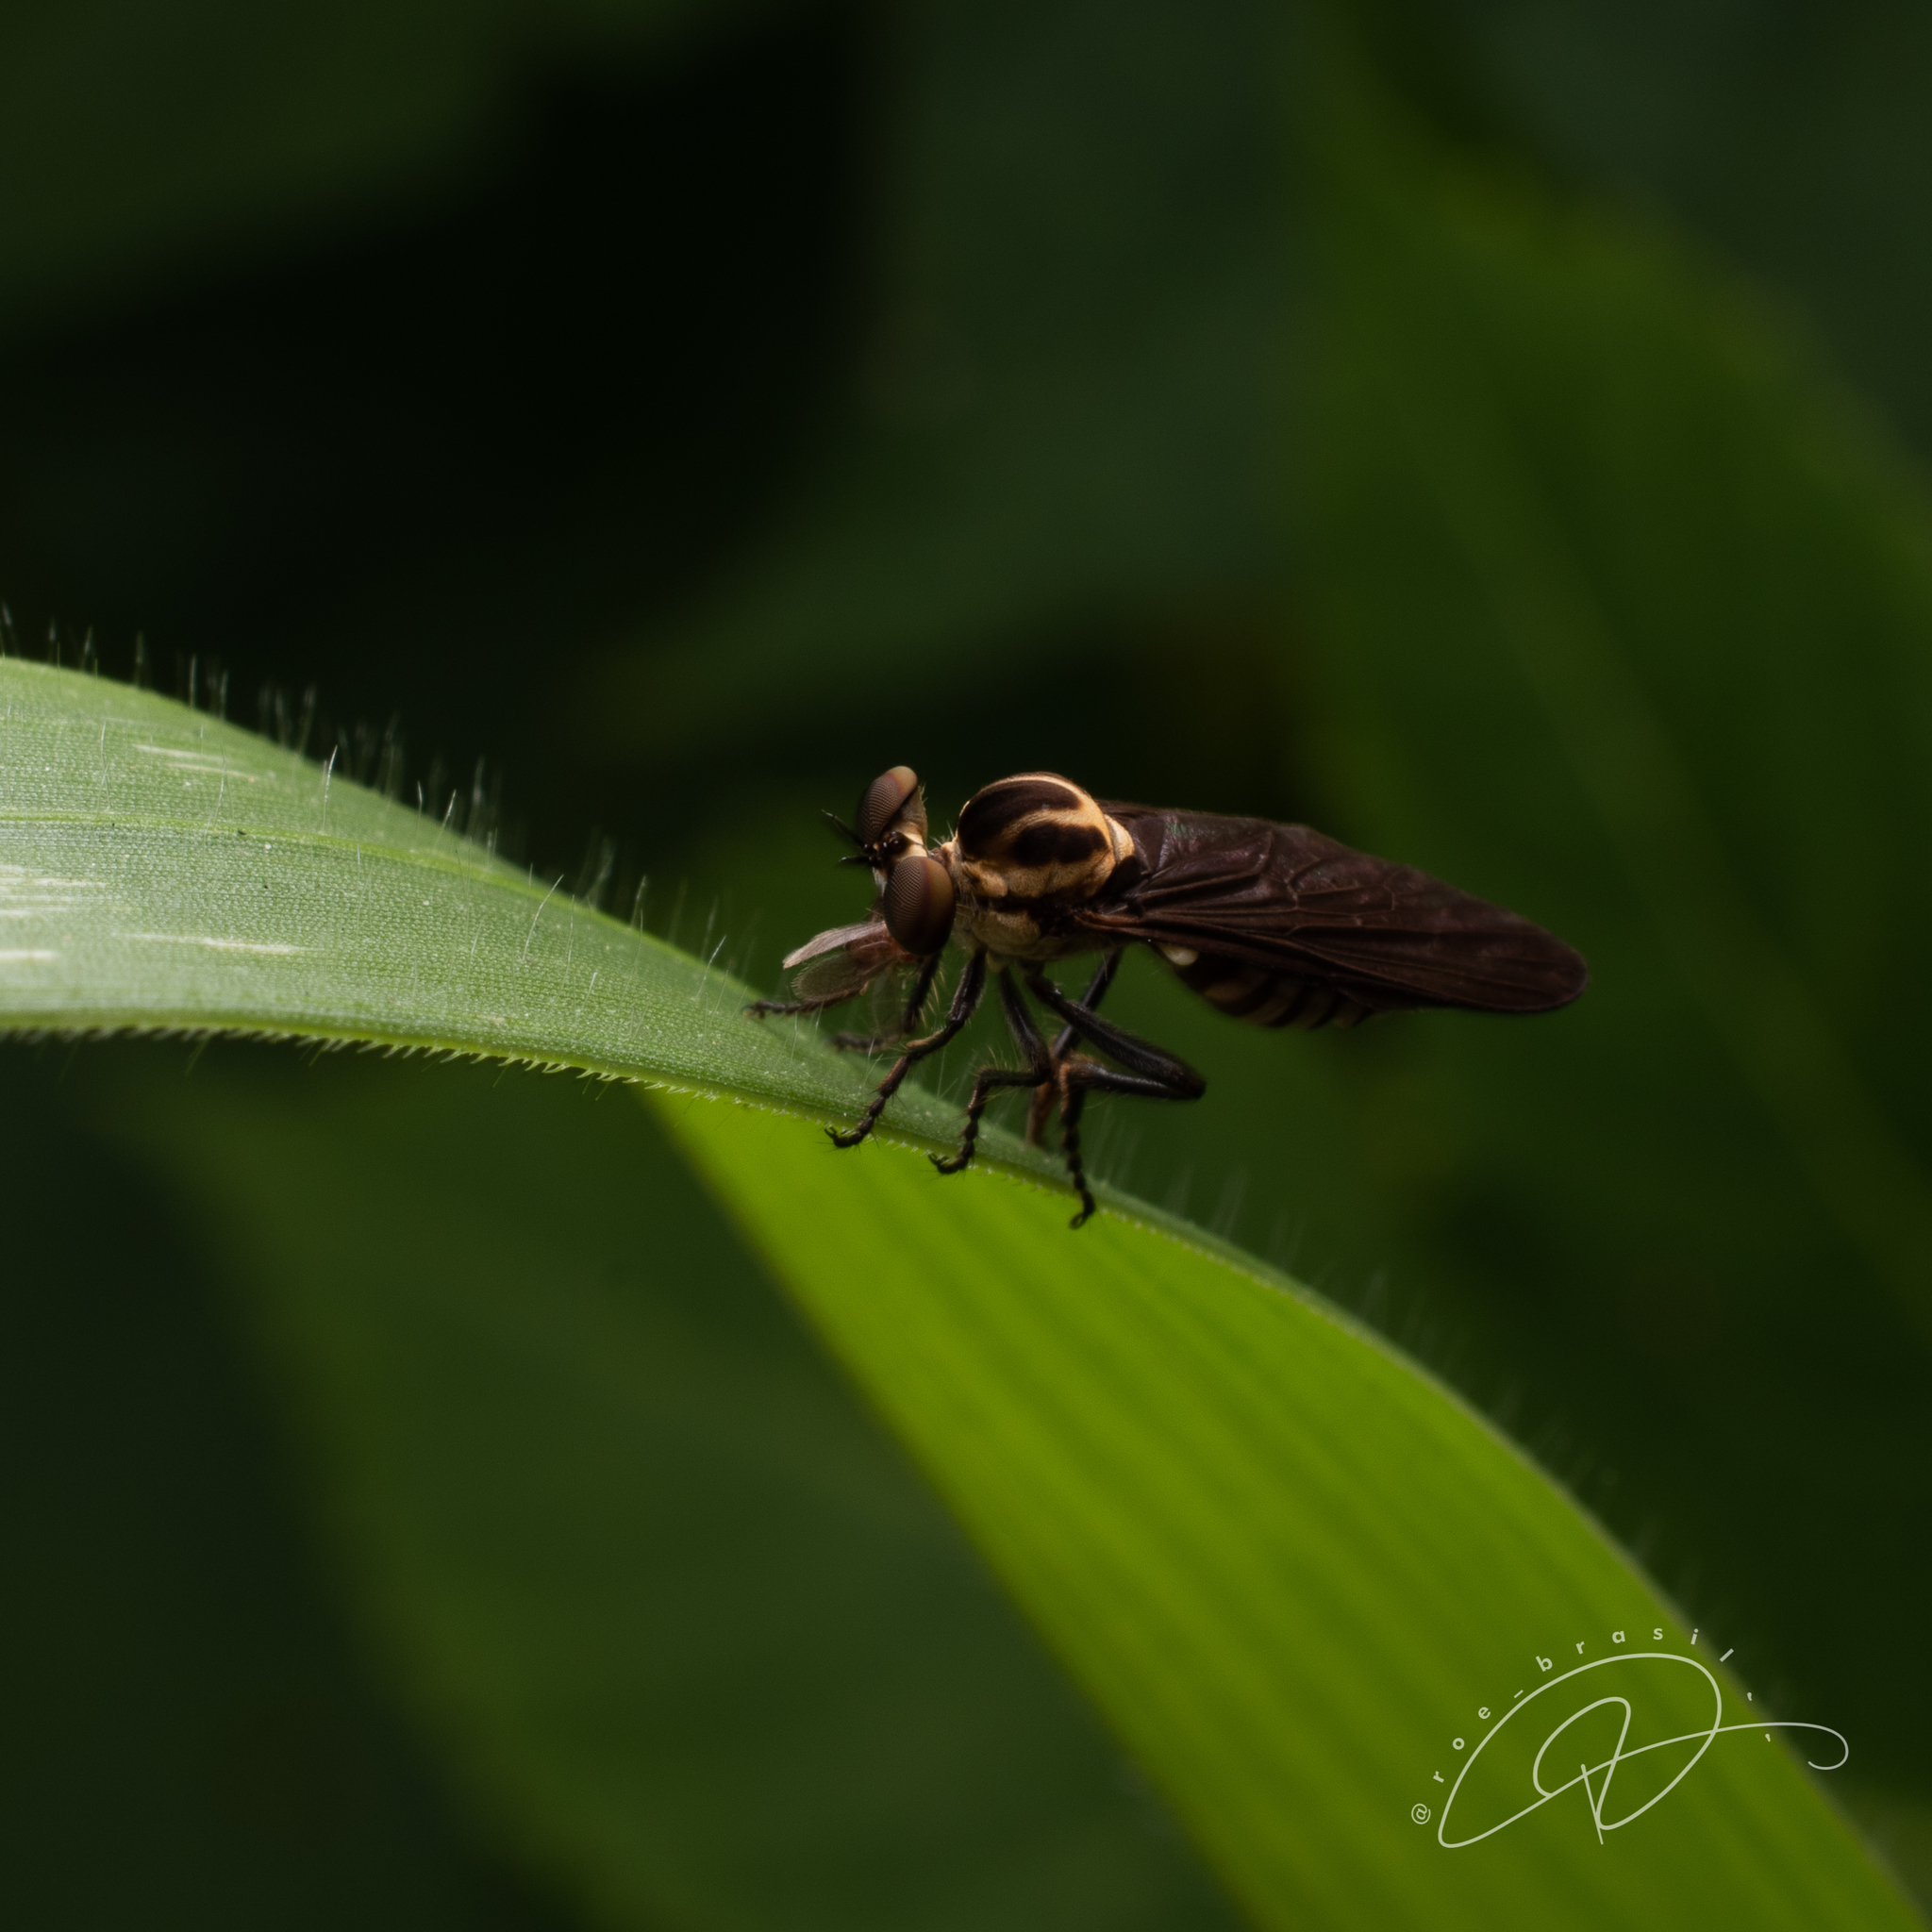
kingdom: Animalia
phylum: Arthropoda
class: Insecta
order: Diptera
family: Asilidae
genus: Holcocephala
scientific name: Holcocephala
